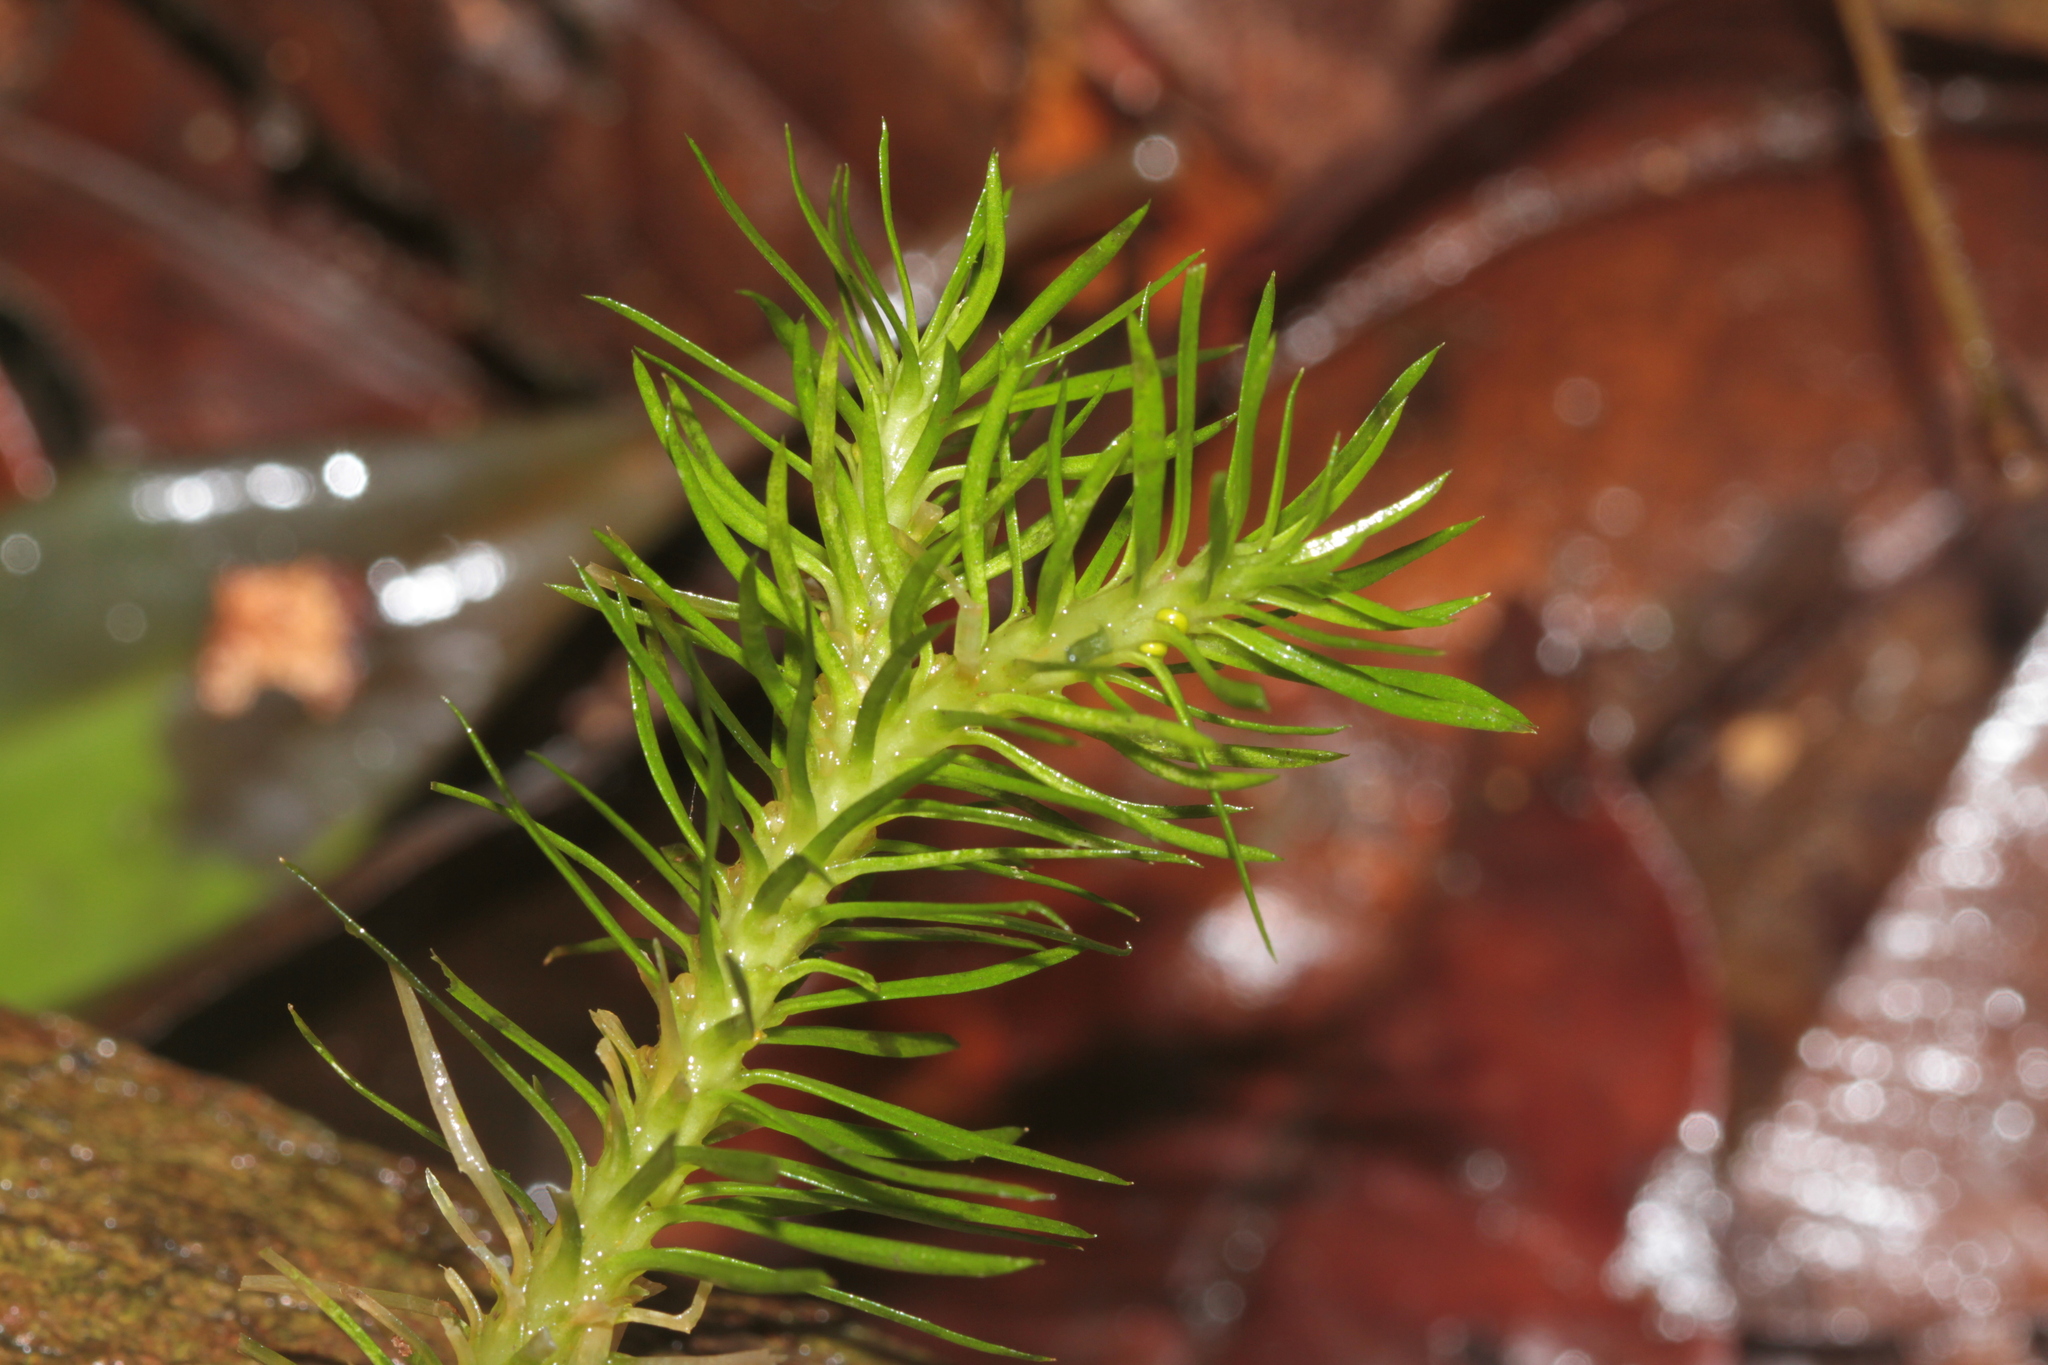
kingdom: Plantae
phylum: Tracheophyta
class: Lycopodiopsida
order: Lycopodiales
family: Lycopodiaceae
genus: Phlegmariurus
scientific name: Phlegmariurus dichotomus
